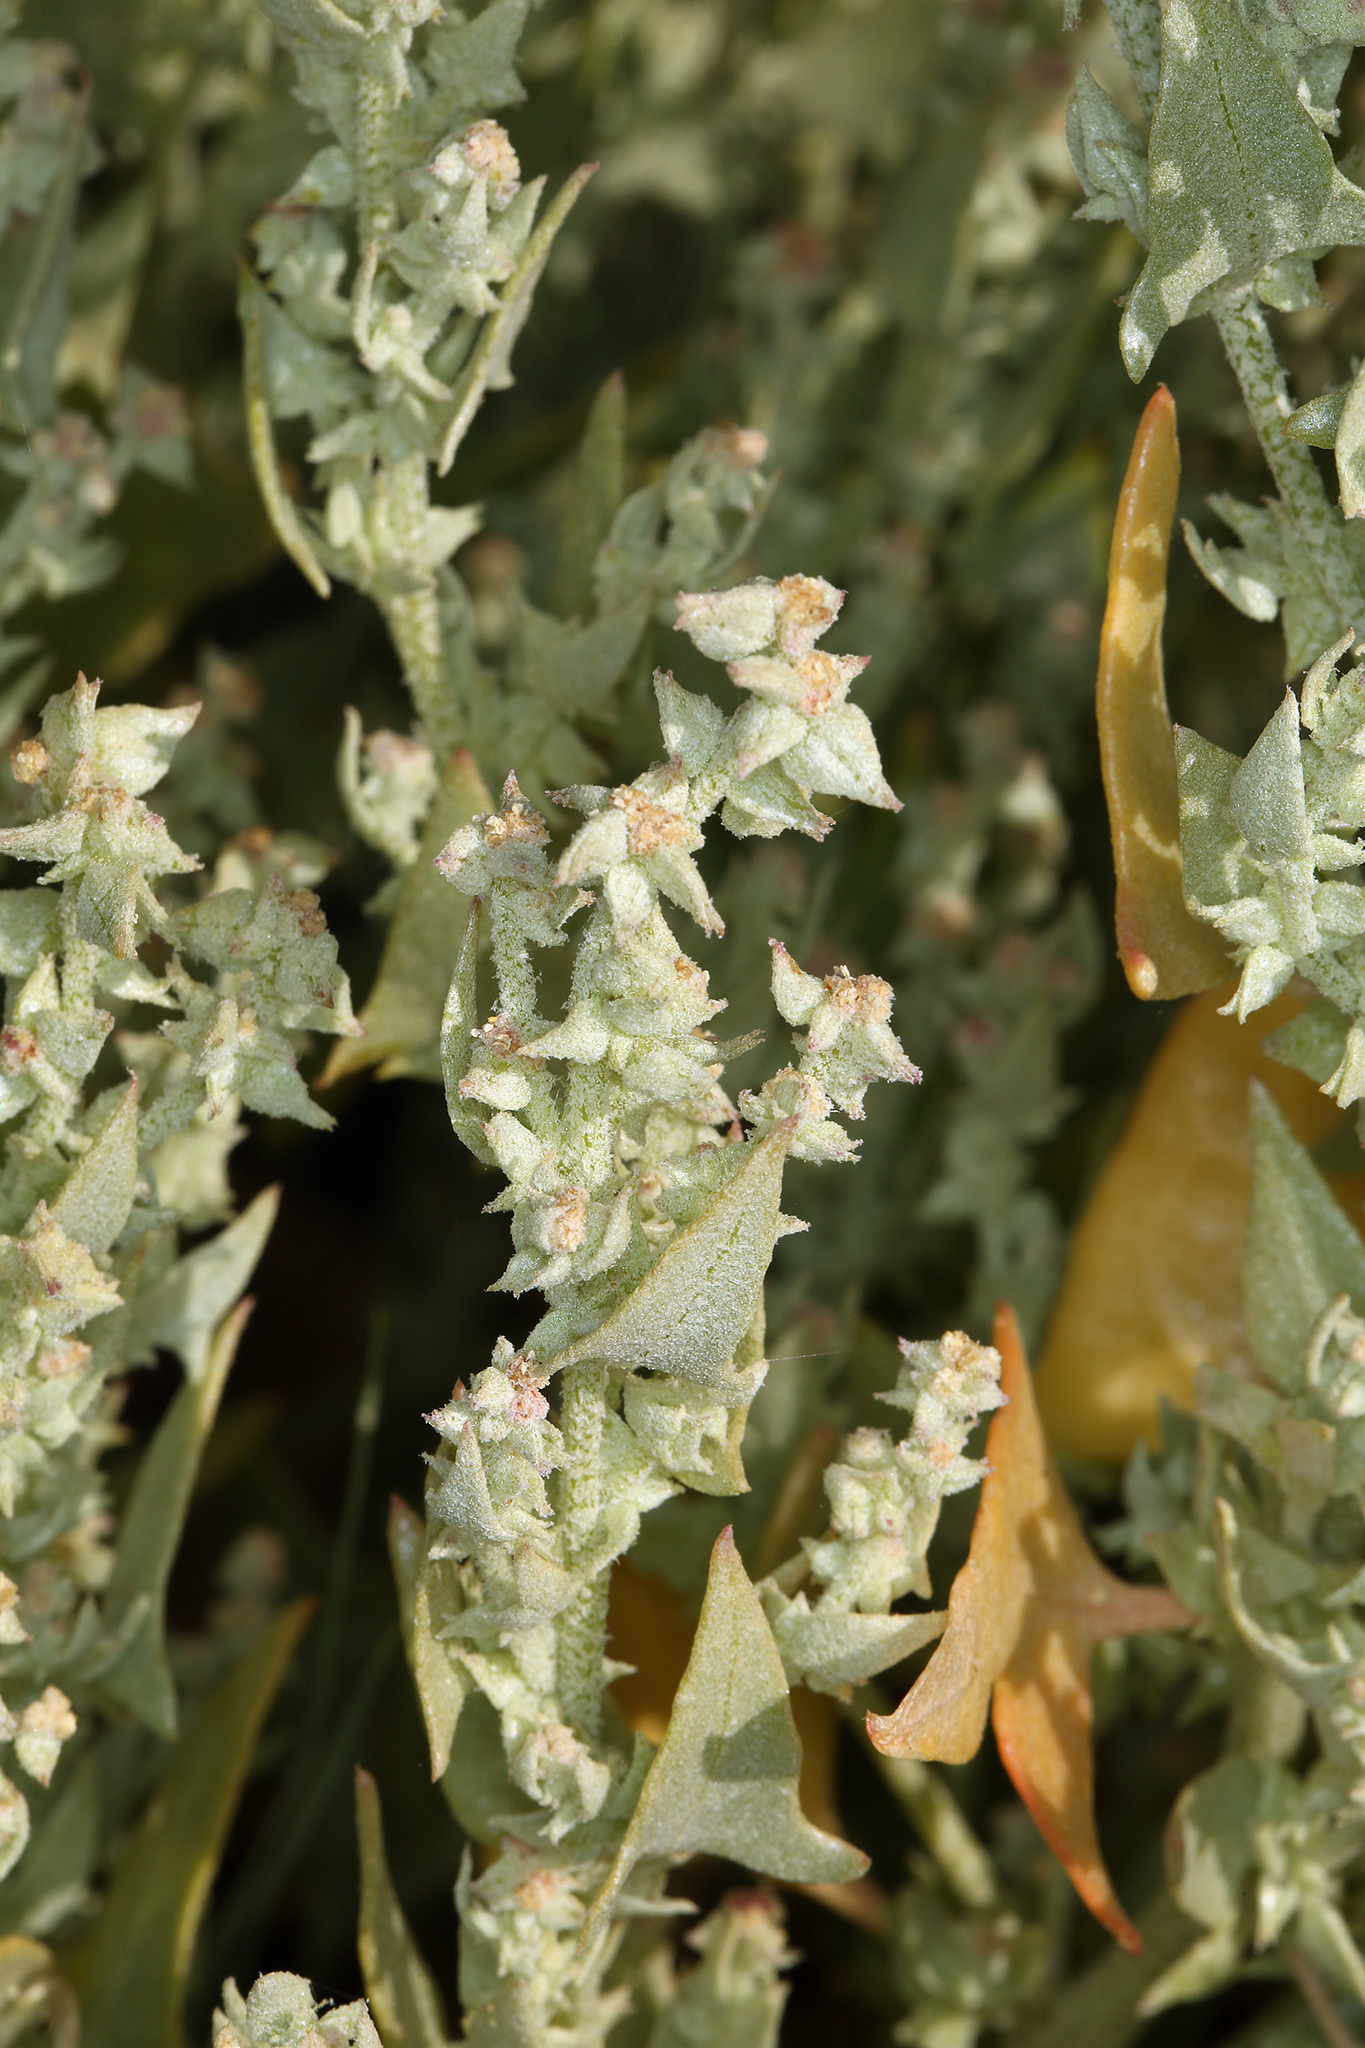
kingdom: Plantae
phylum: Tracheophyta
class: Magnoliopsida
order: Caryophyllales
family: Amaranthaceae
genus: Stutzia
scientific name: Stutzia covillei
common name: Coville's orach
